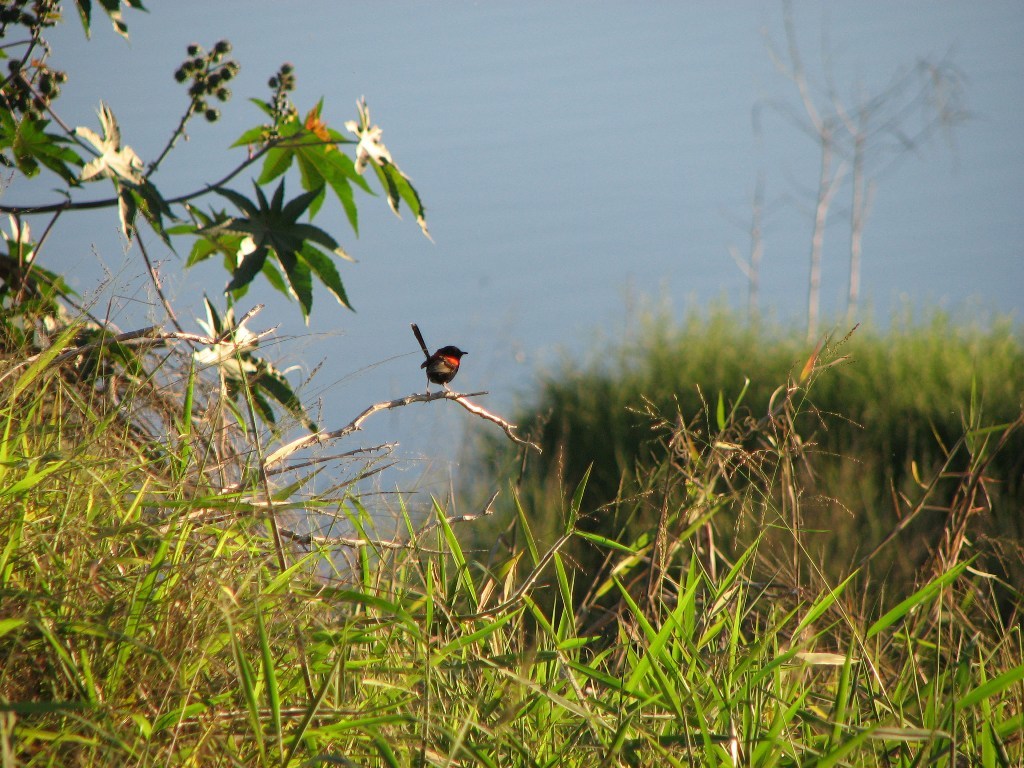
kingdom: Animalia
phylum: Chordata
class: Aves
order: Passeriformes
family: Maluridae
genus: Malurus
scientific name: Malurus melanocephalus
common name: Red-backed fairywren
